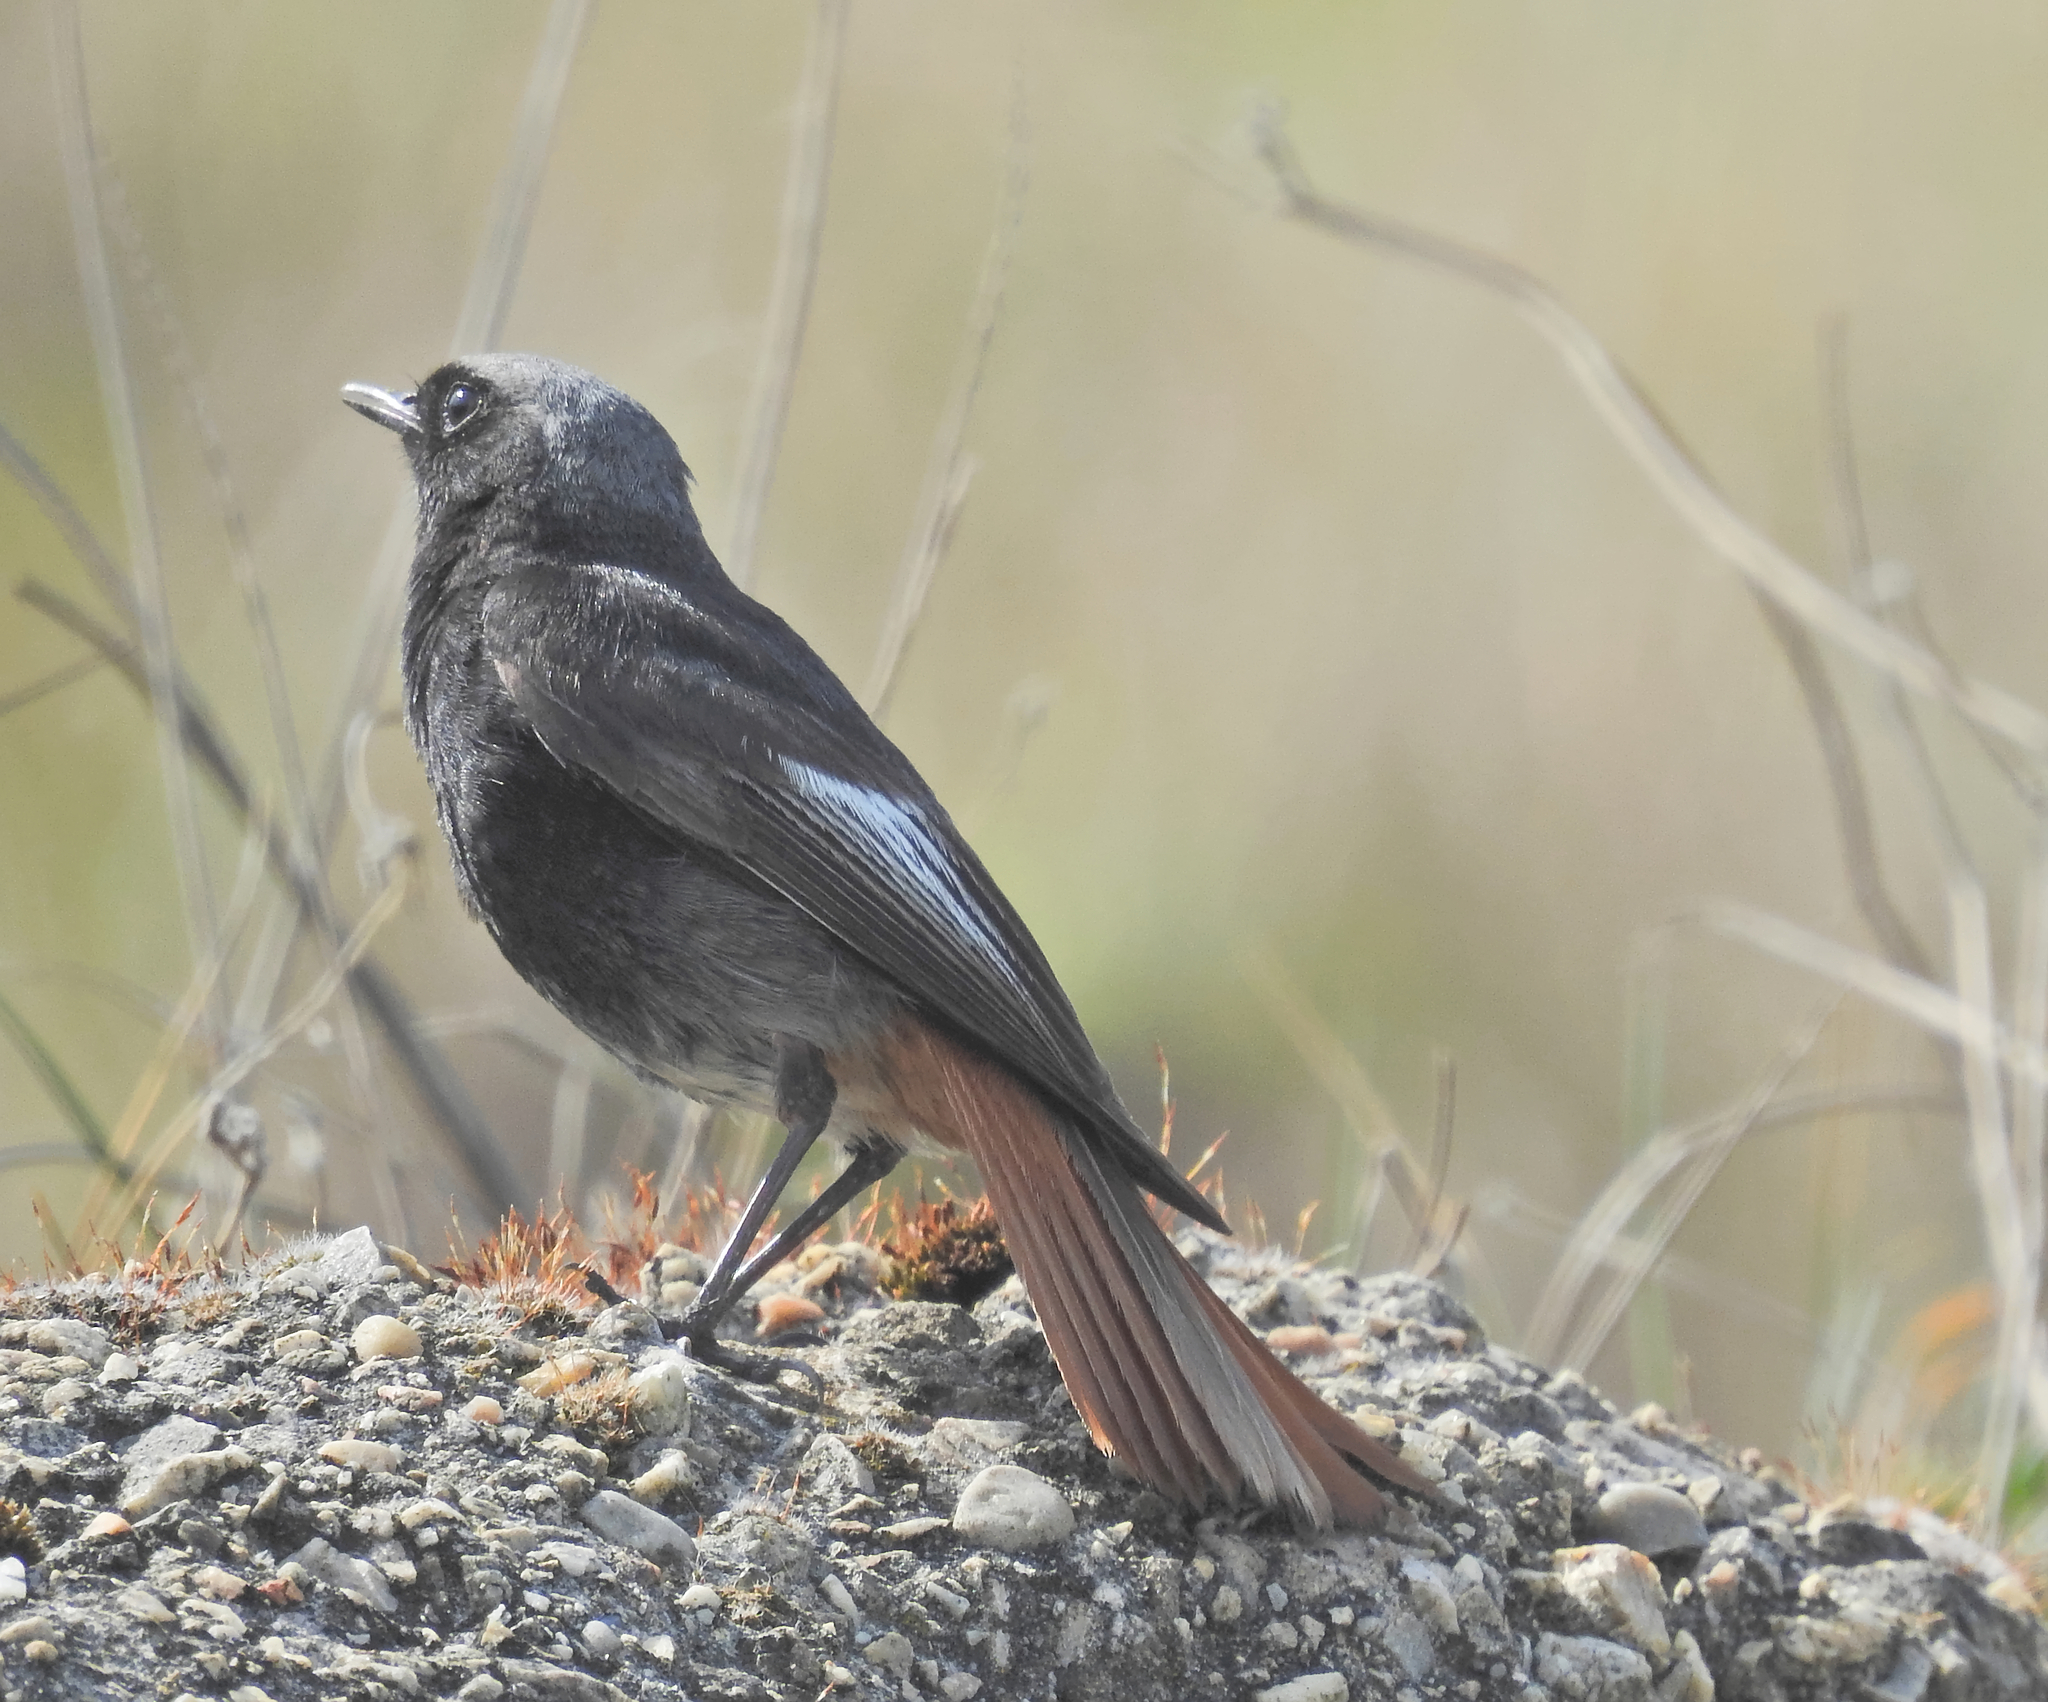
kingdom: Animalia
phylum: Chordata
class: Aves
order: Passeriformes
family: Muscicapidae
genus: Phoenicurus
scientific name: Phoenicurus ochruros
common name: Black redstart
